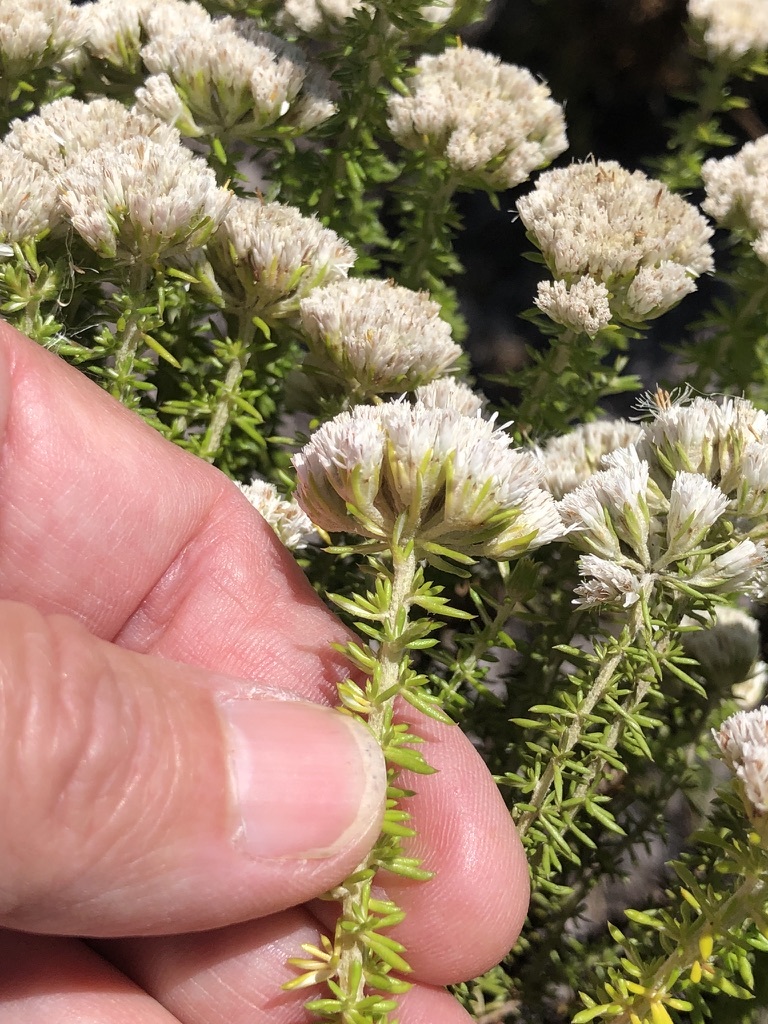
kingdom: Plantae
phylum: Tracheophyta
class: Magnoliopsida
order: Asterales
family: Asteraceae
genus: Metalasia
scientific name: Metalasia brevifolia
